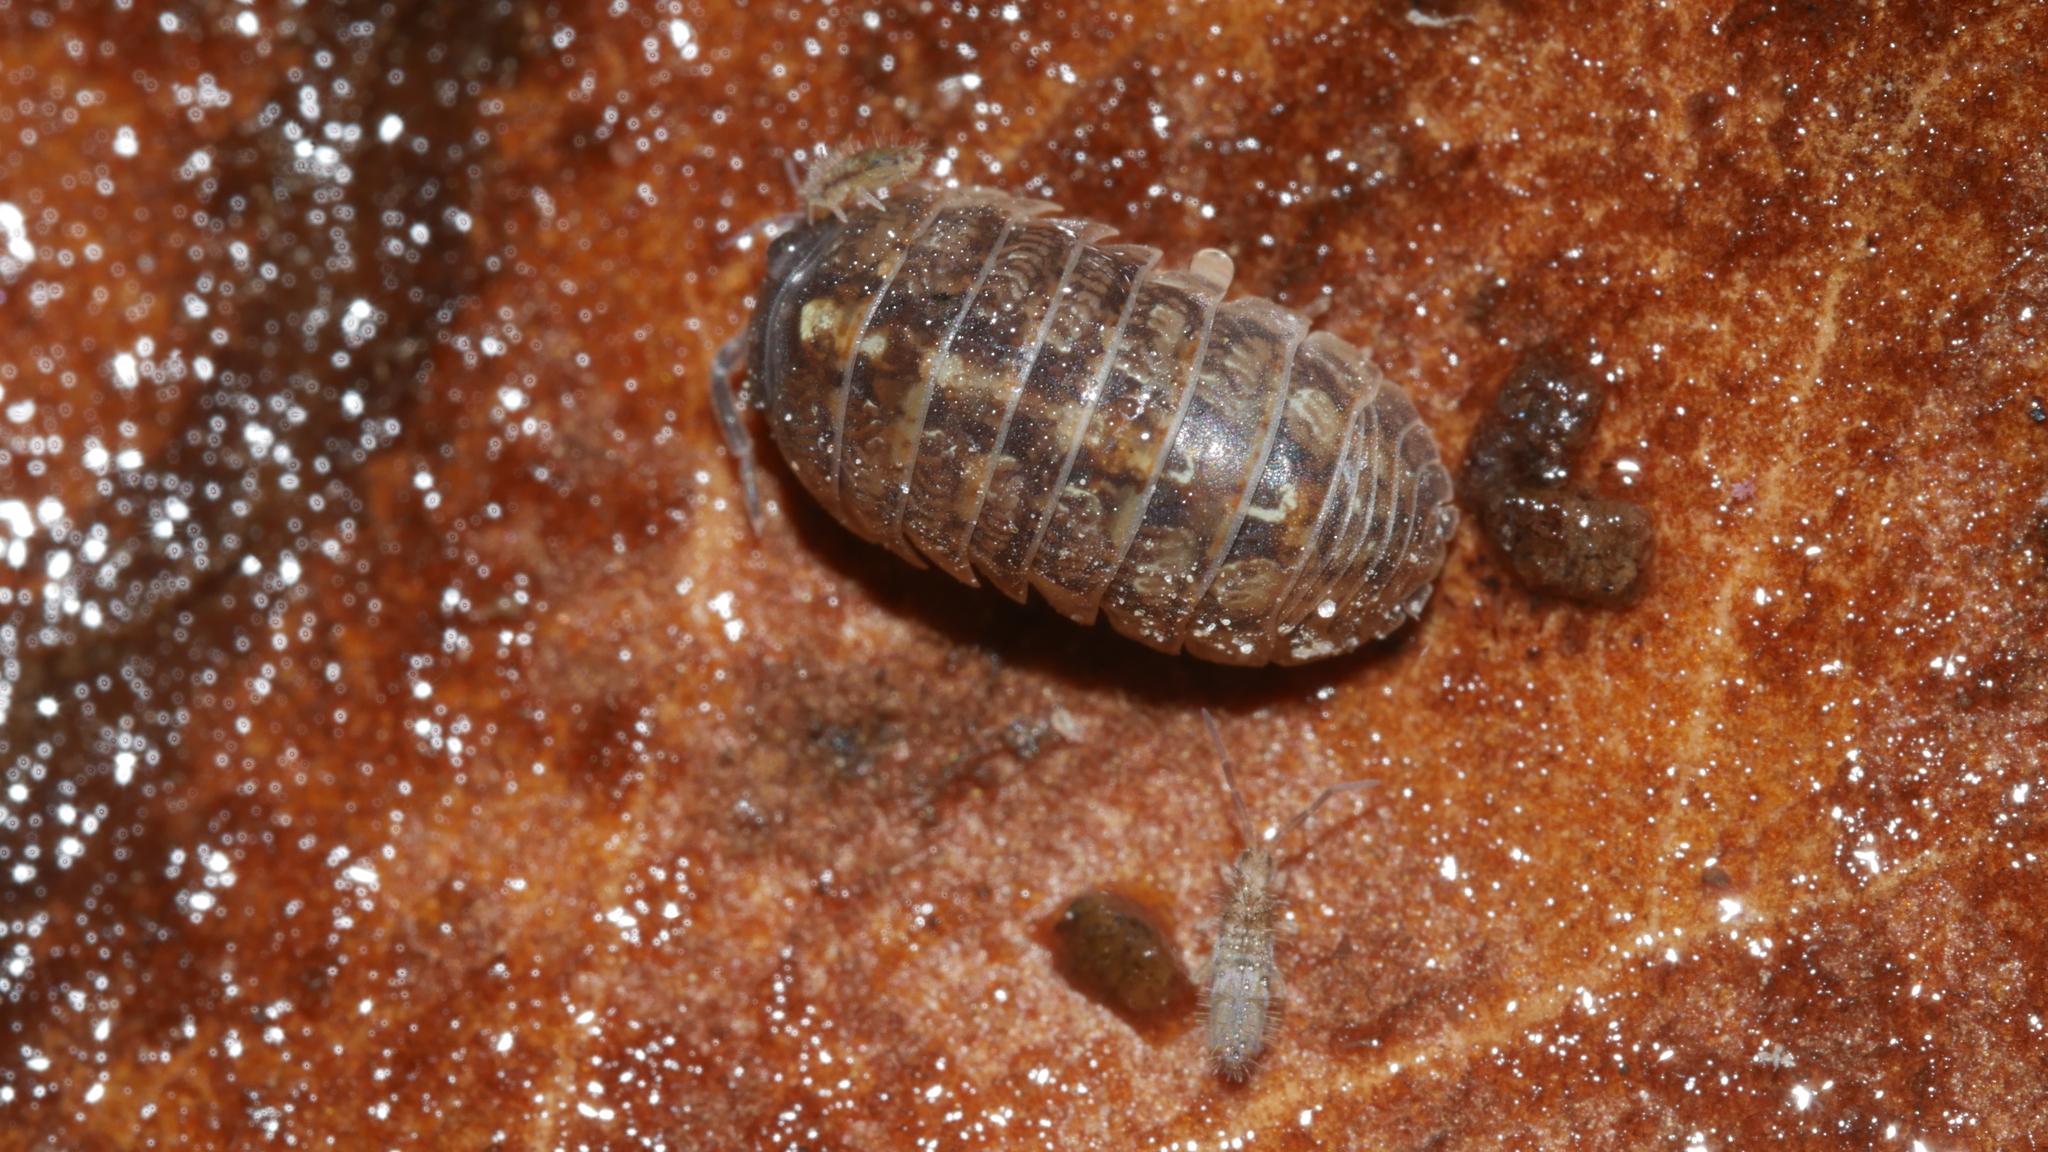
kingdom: Animalia
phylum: Arthropoda
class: Malacostraca
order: Isopoda
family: Armadillidiidae
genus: Armadillidium
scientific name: Armadillidium vulgare
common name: Common pill woodlouse
